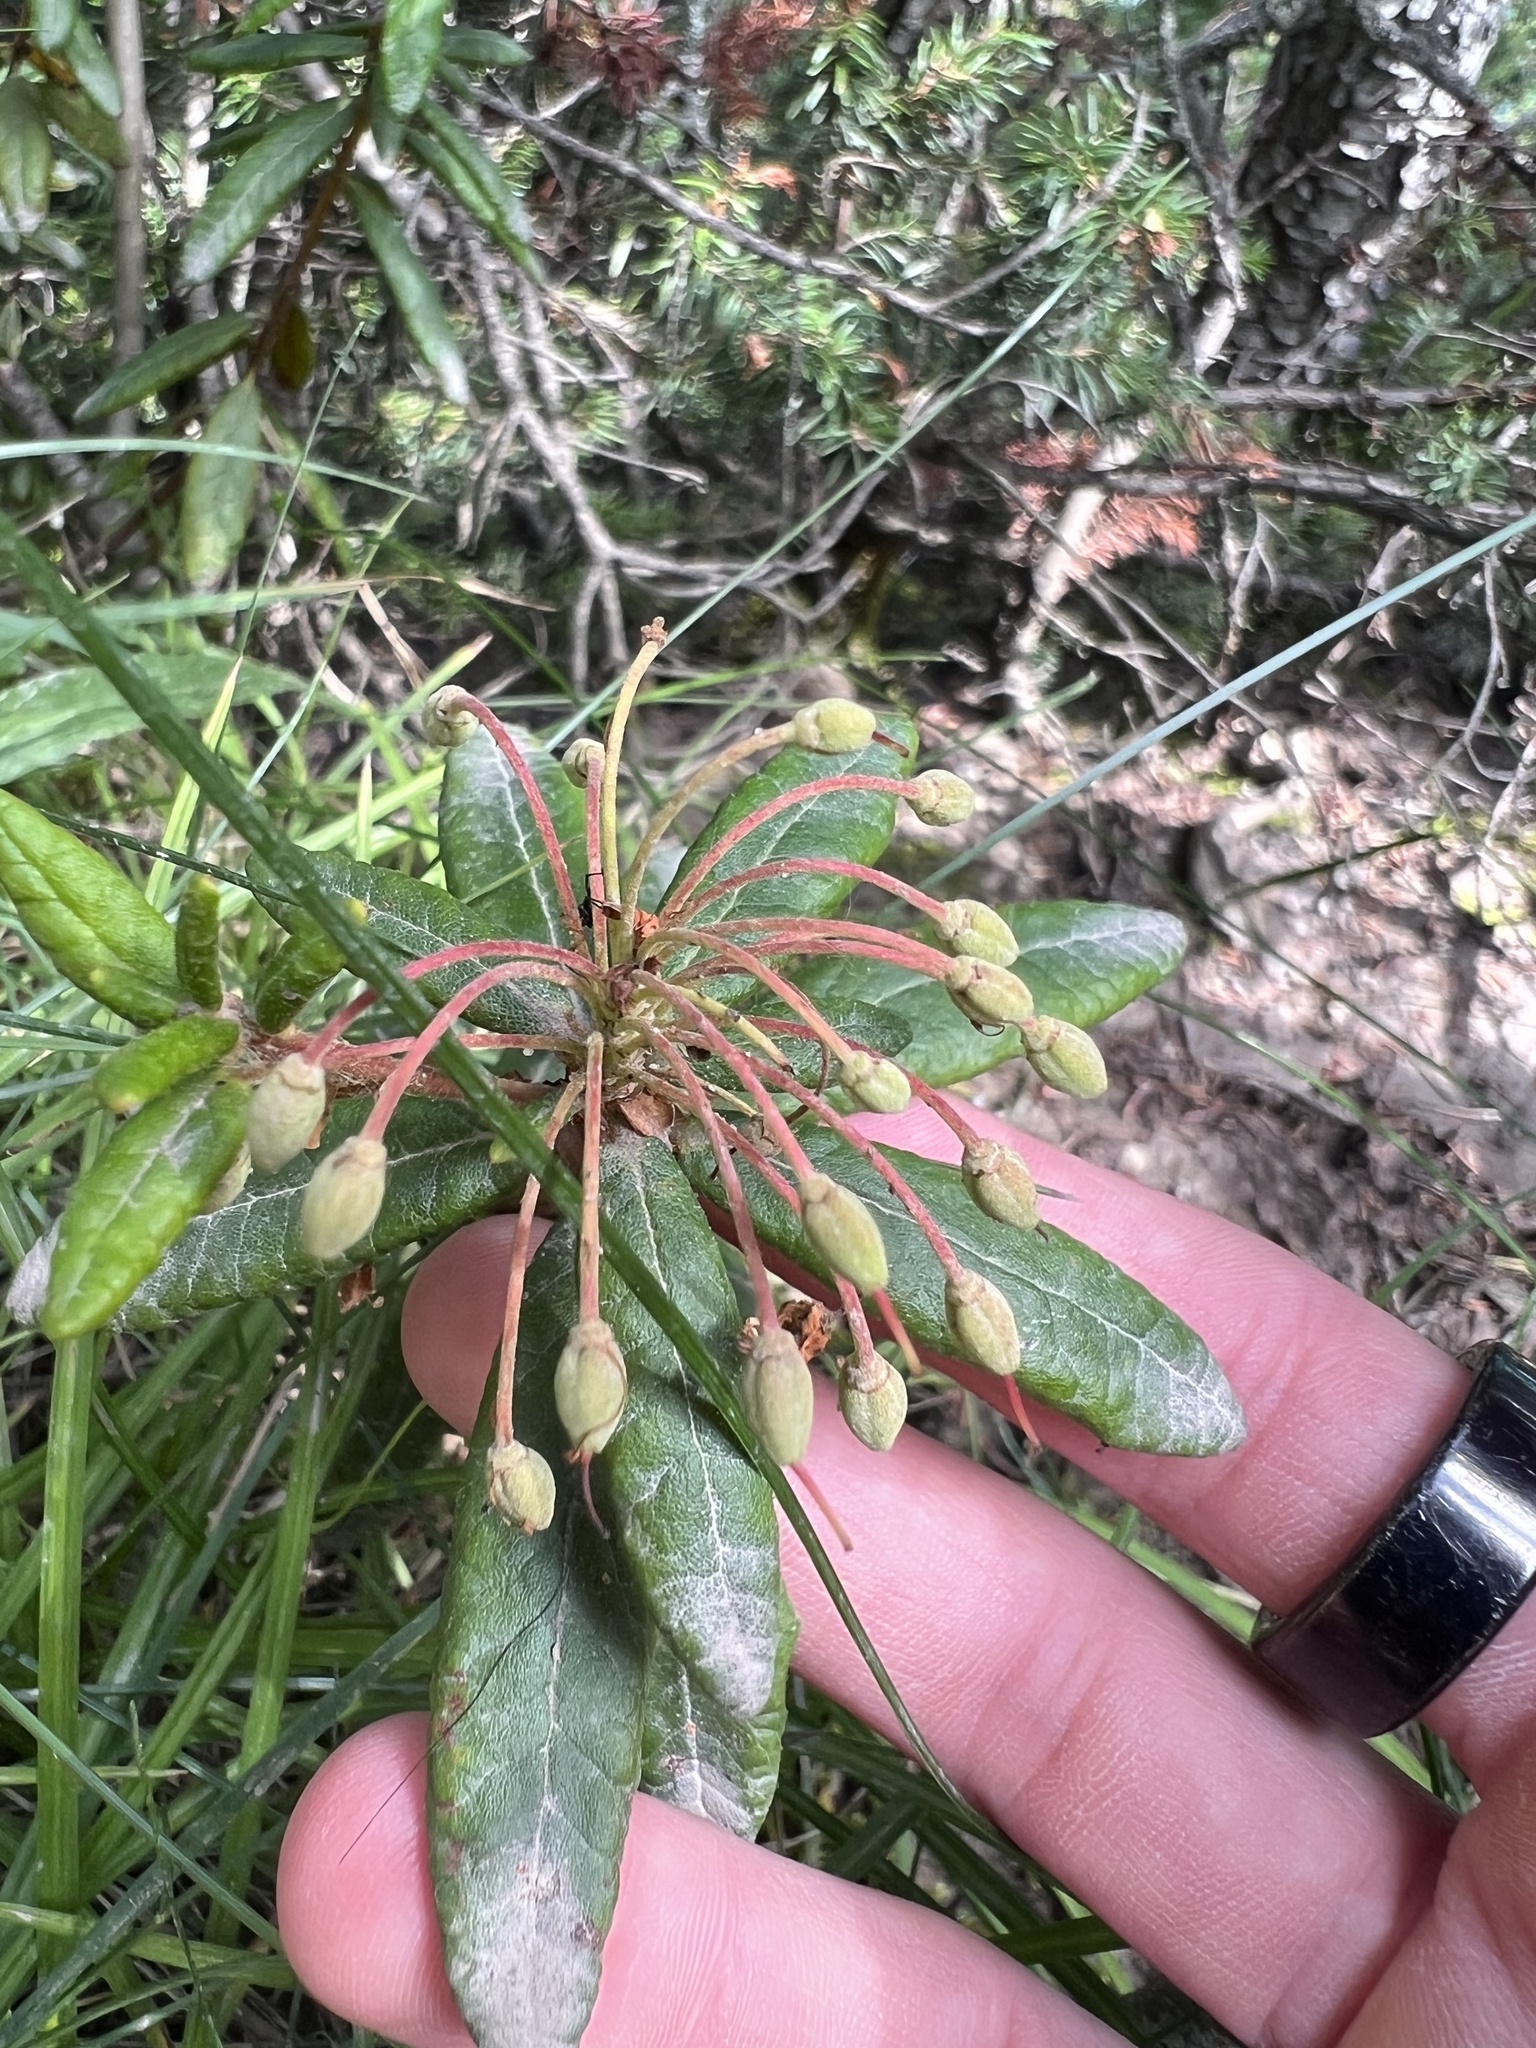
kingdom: Plantae
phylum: Tracheophyta
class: Magnoliopsida
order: Ericales
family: Ericaceae
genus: Rhododendron
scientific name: Rhododendron groenlandicum
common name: Bog labrador tea
